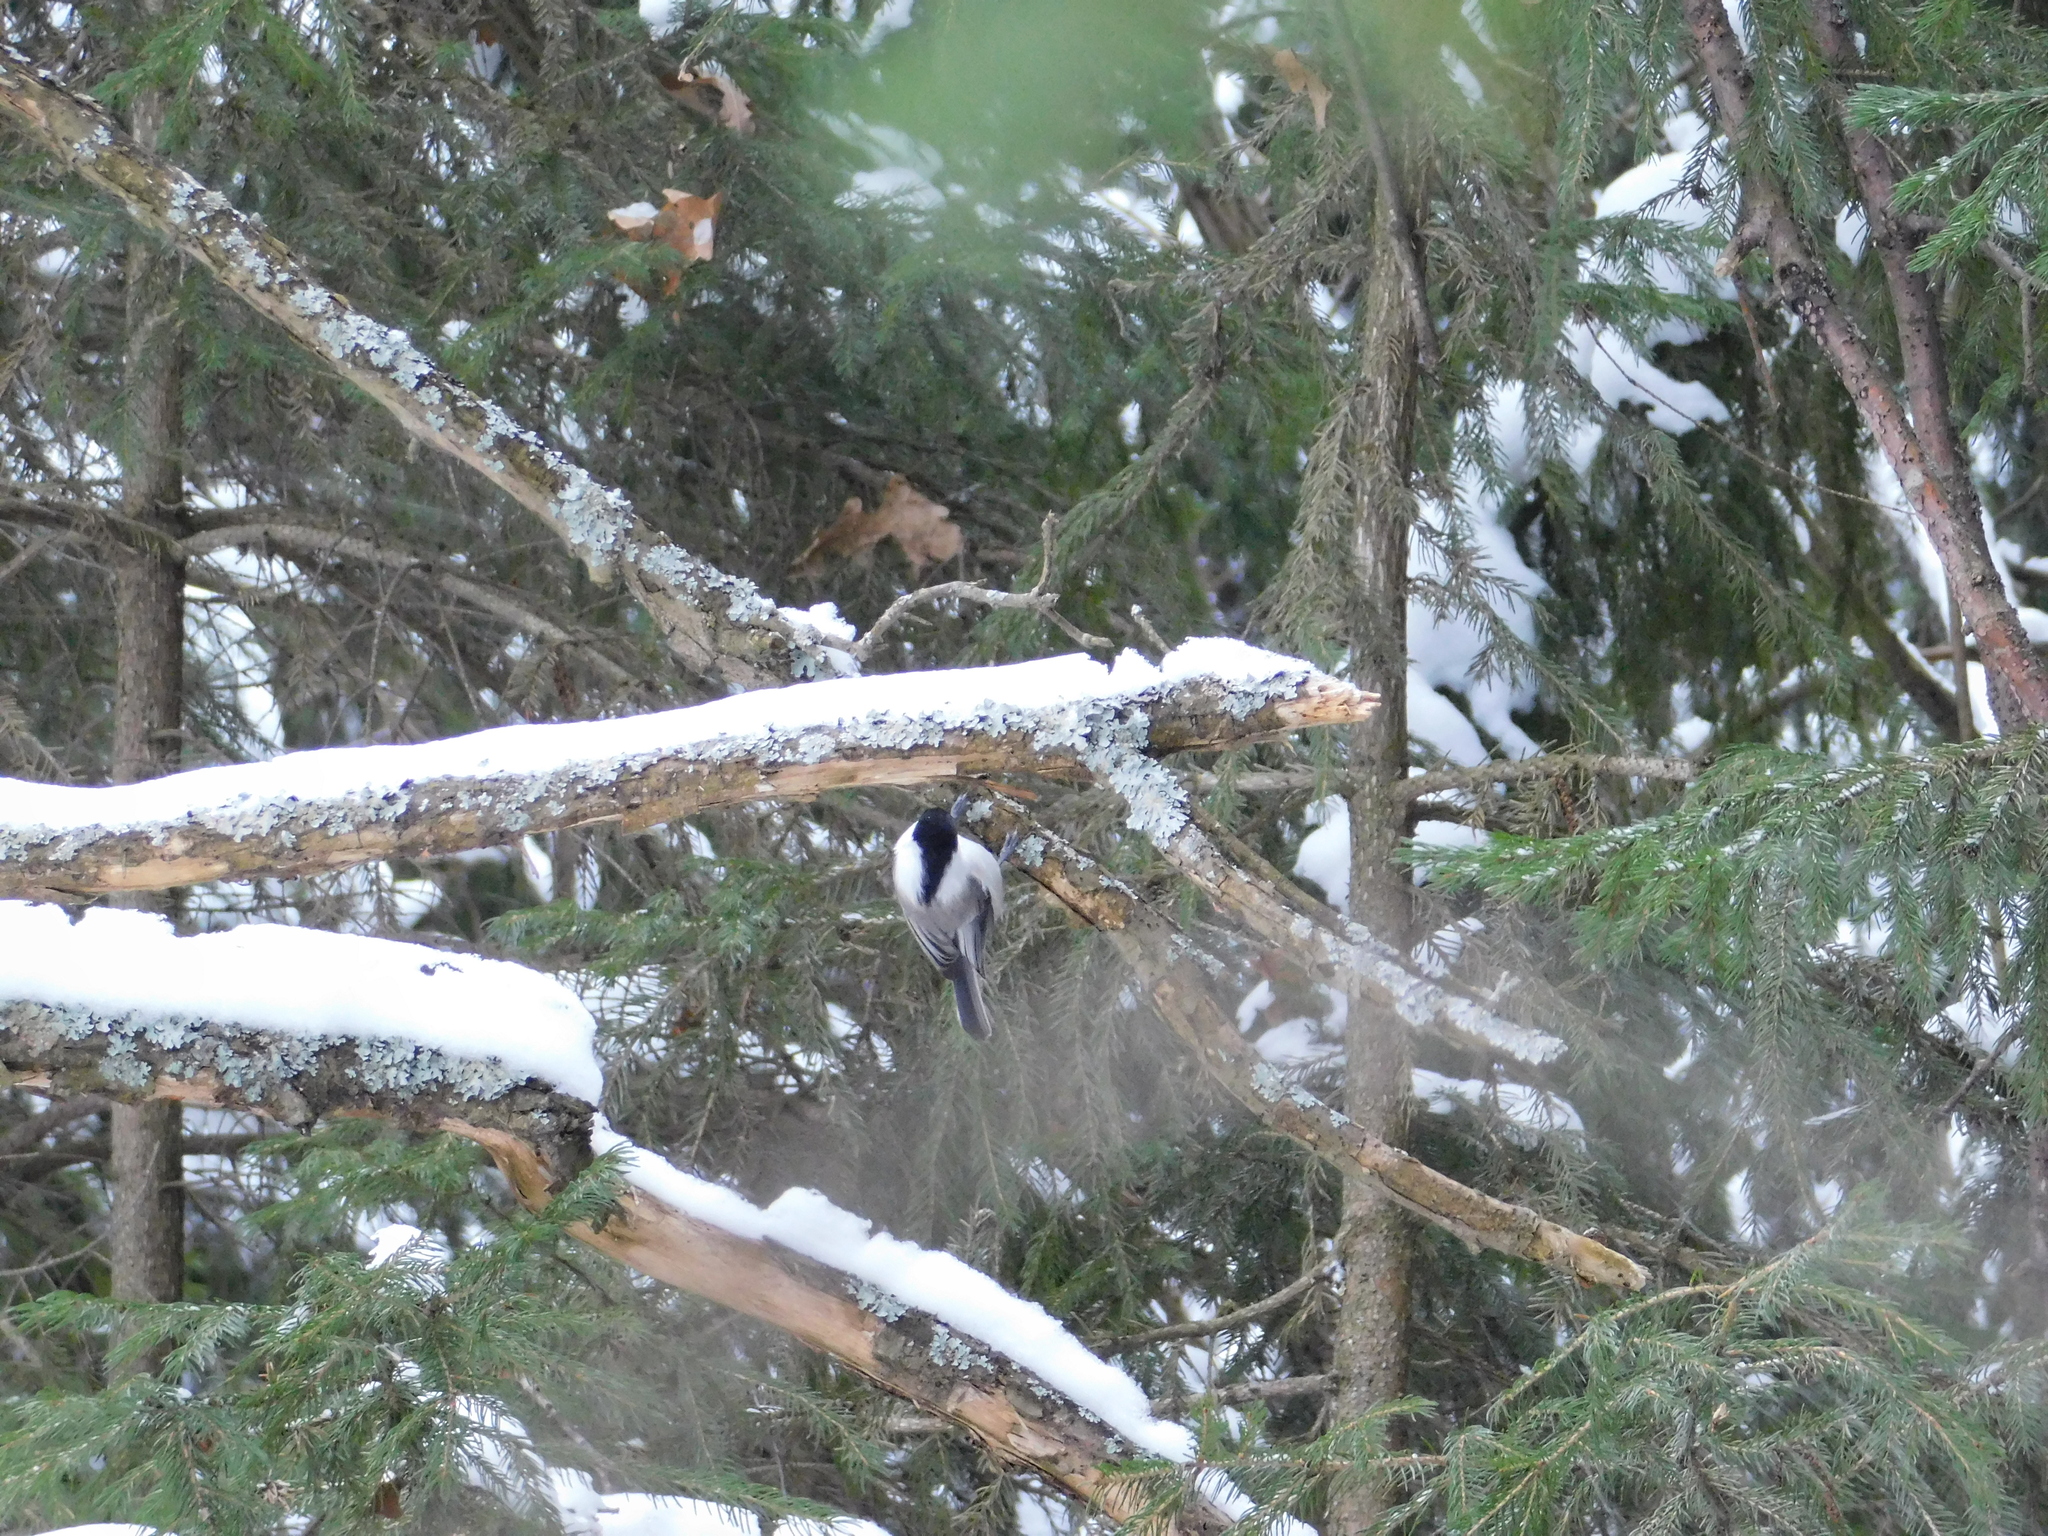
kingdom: Animalia
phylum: Chordata
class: Aves
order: Passeriformes
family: Paridae
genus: Poecile
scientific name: Poecile montanus
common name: Willow tit
